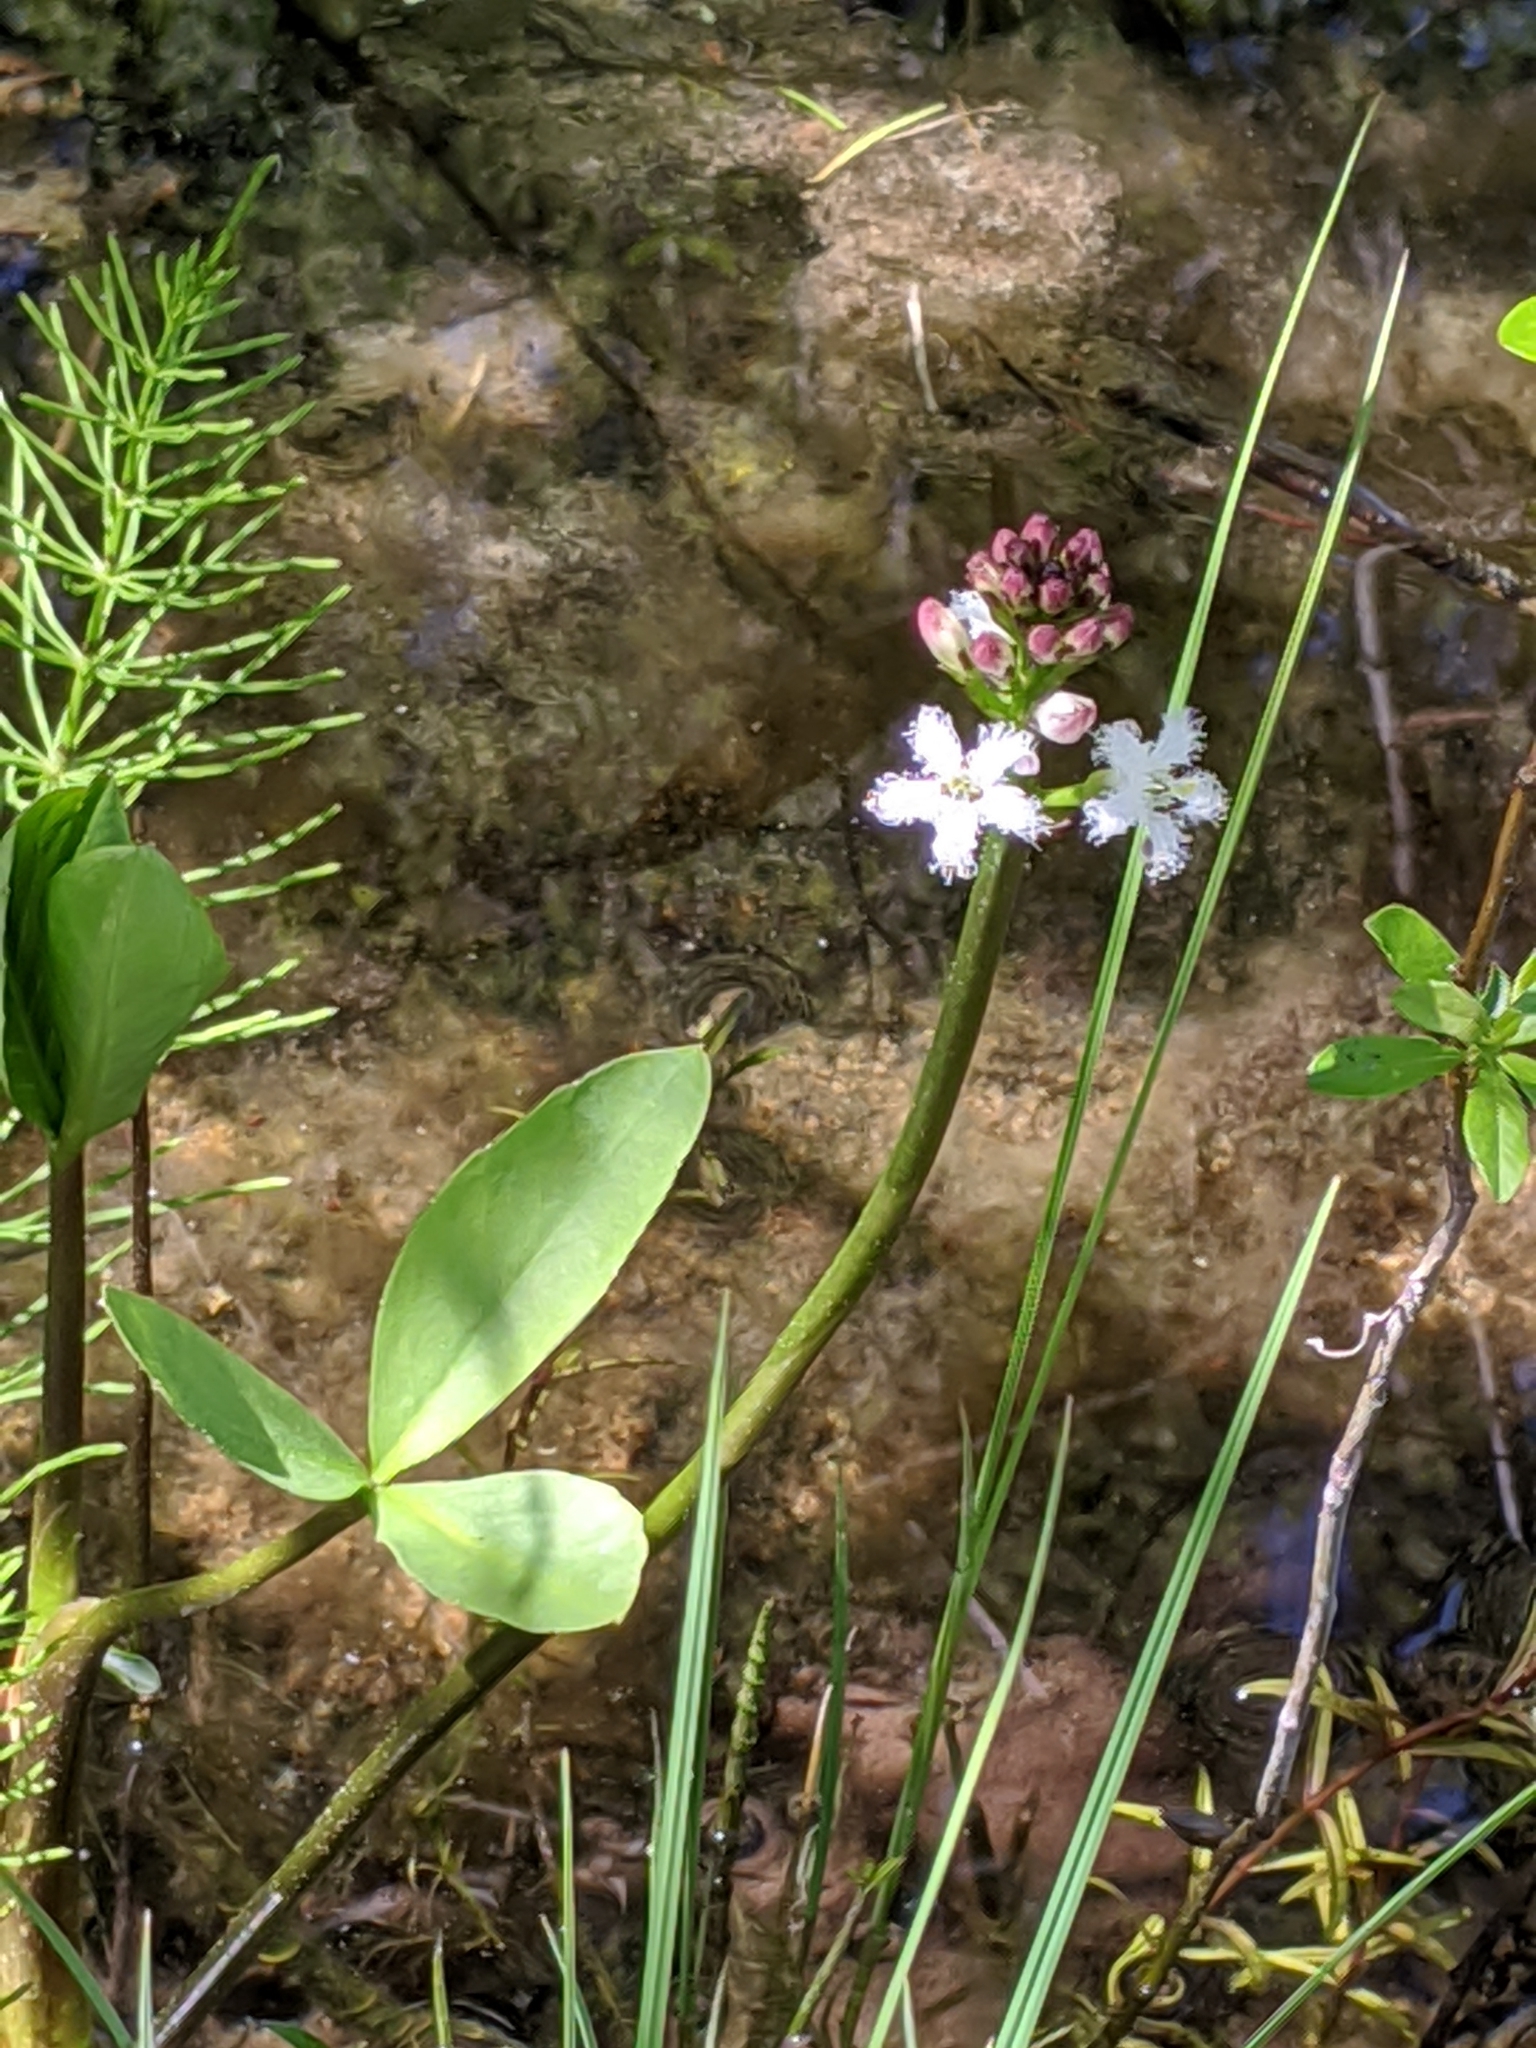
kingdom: Plantae
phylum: Tracheophyta
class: Magnoliopsida
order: Asterales
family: Menyanthaceae
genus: Menyanthes
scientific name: Menyanthes trifoliata
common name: Bogbean
